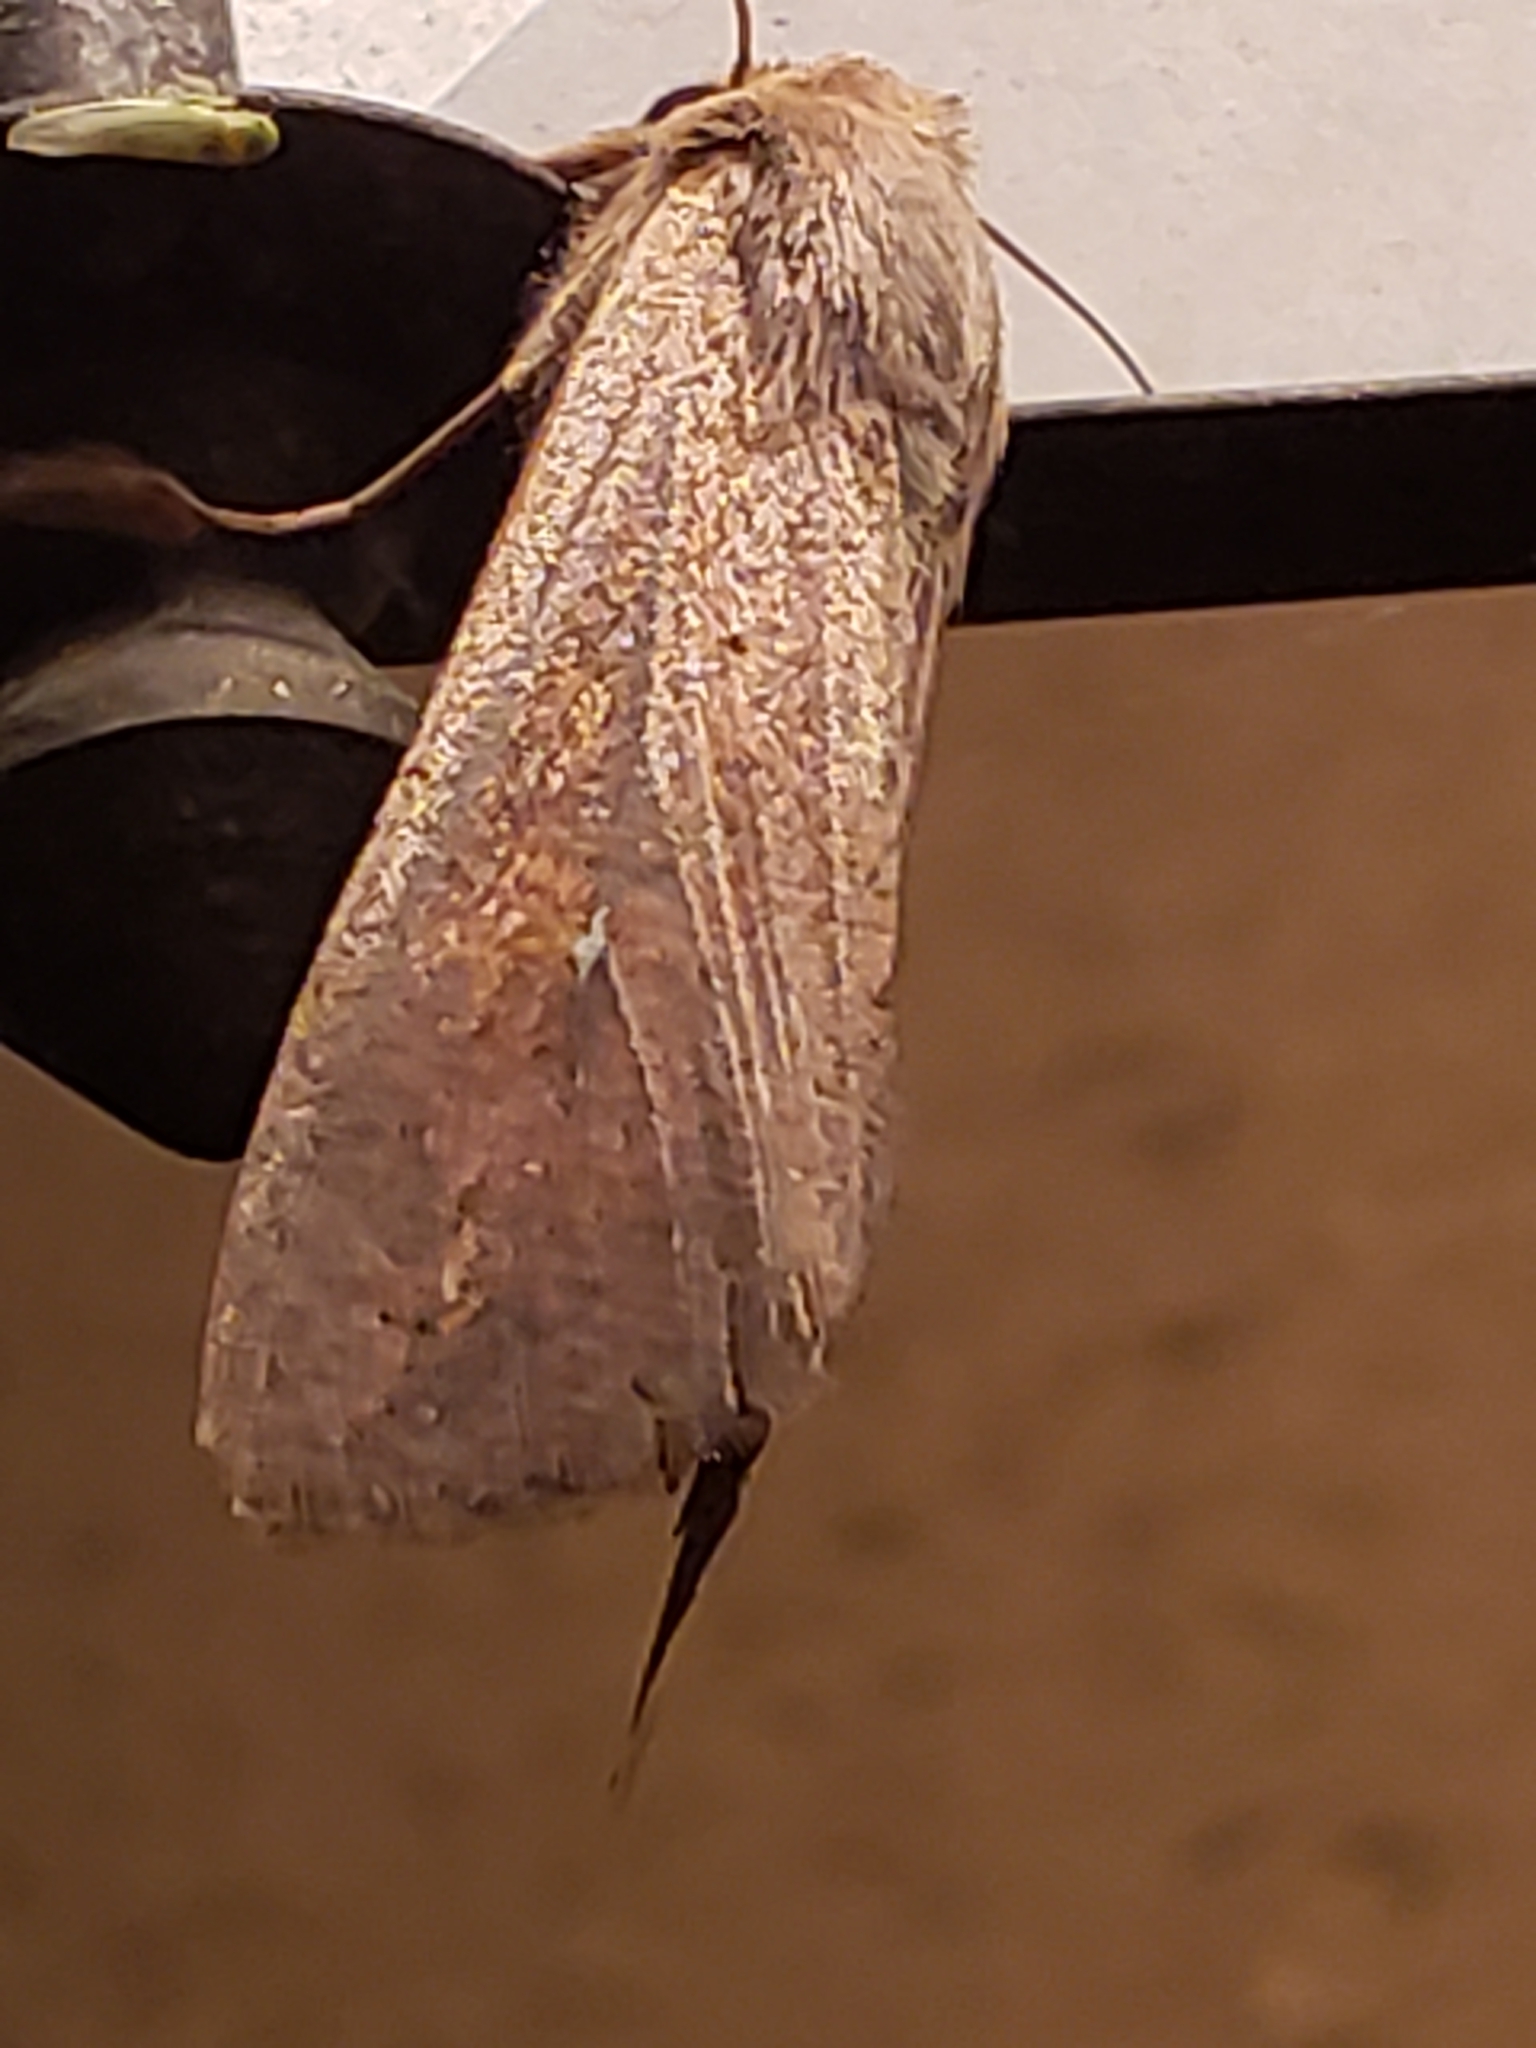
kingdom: Animalia
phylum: Arthropoda
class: Insecta
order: Lepidoptera
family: Noctuidae
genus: Mythimna
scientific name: Mythimna unipuncta
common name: White-speck
